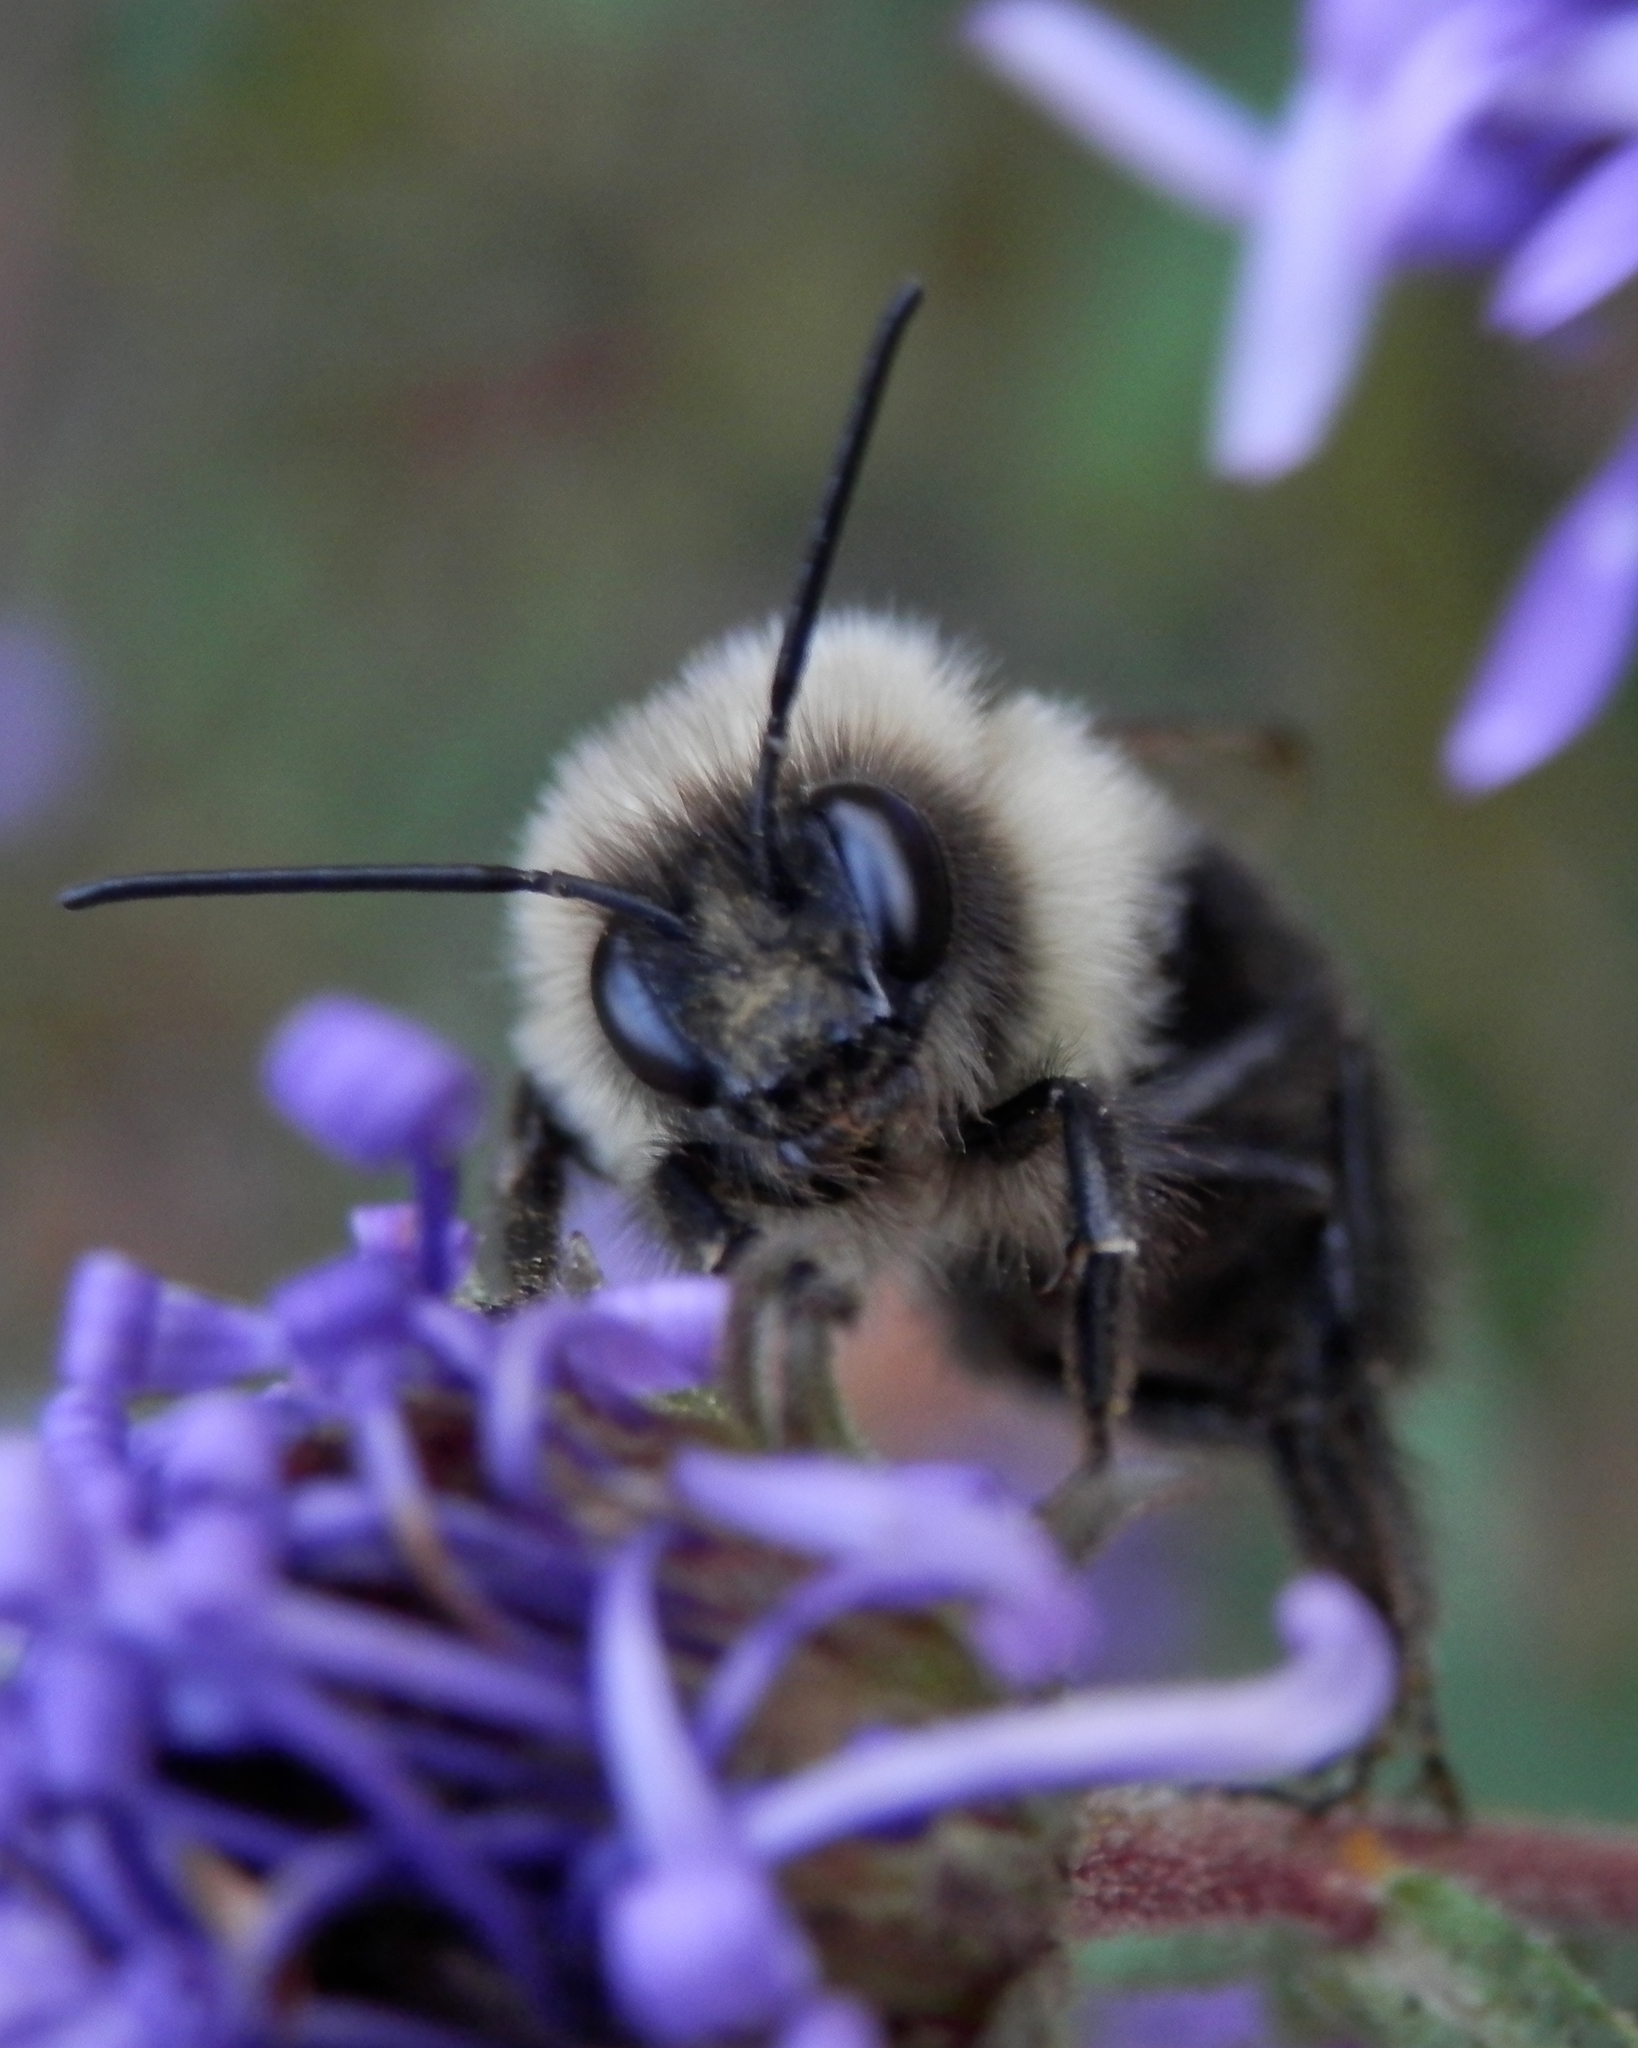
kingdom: Animalia
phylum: Arthropoda
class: Insecta
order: Hymenoptera
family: Apidae
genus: Bombus
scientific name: Bombus impatiens
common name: Common eastern bumble bee
